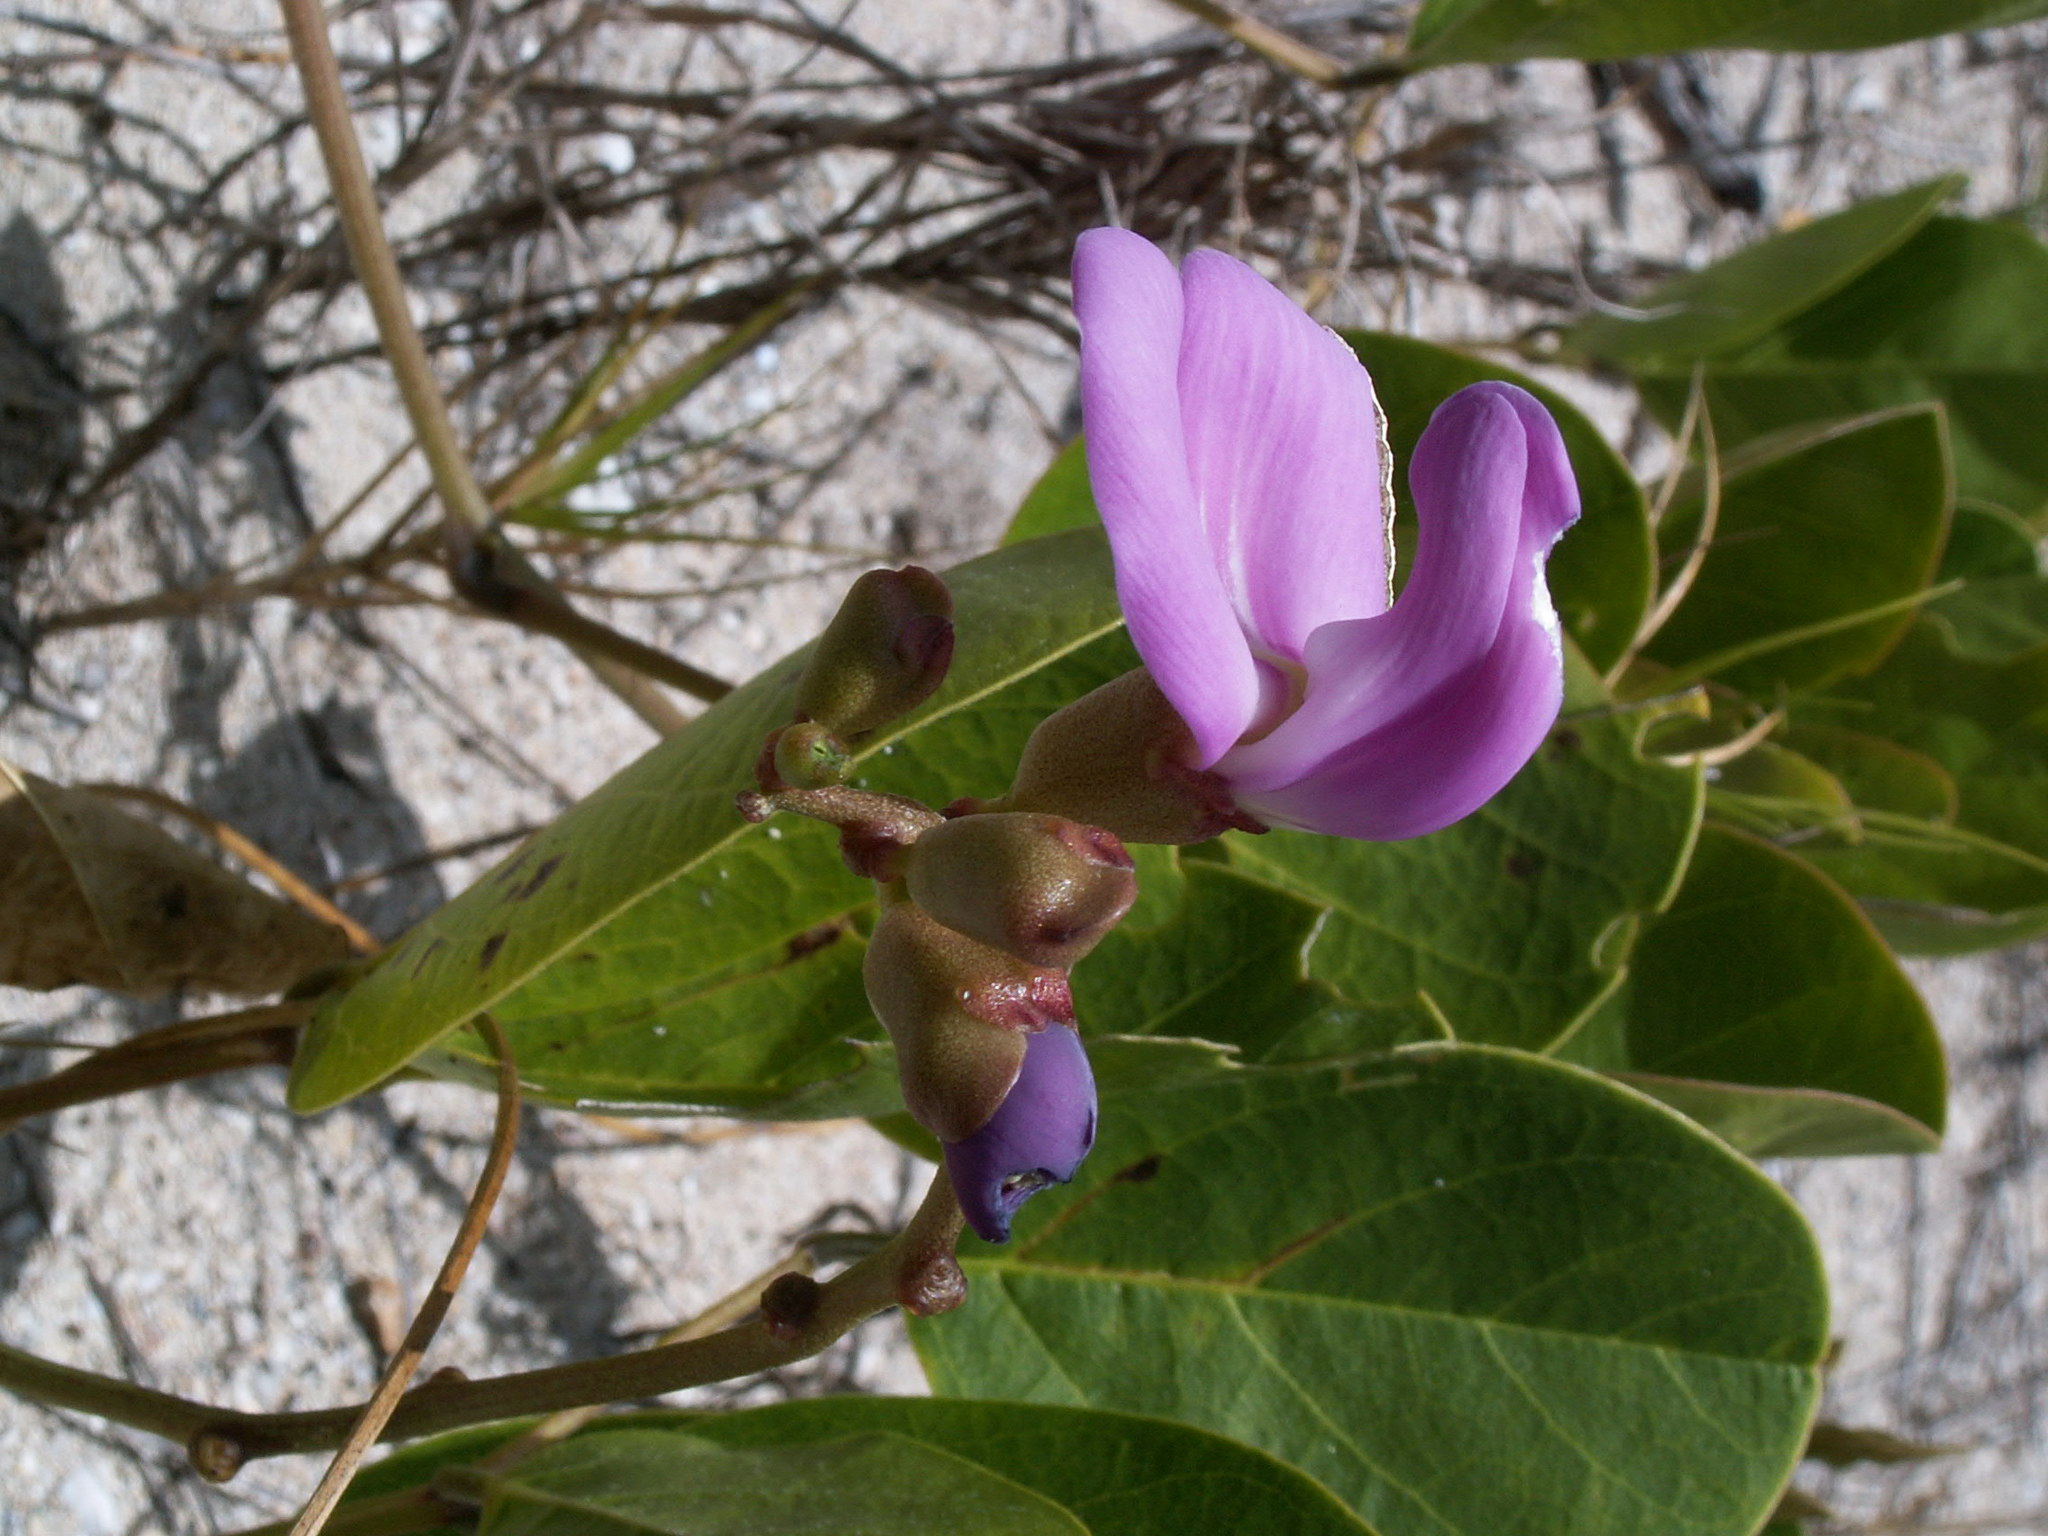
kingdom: Plantae
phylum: Tracheophyta
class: Magnoliopsida
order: Fabales
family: Fabaceae
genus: Canavalia
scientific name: Canavalia rosea
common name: Beach-bean
